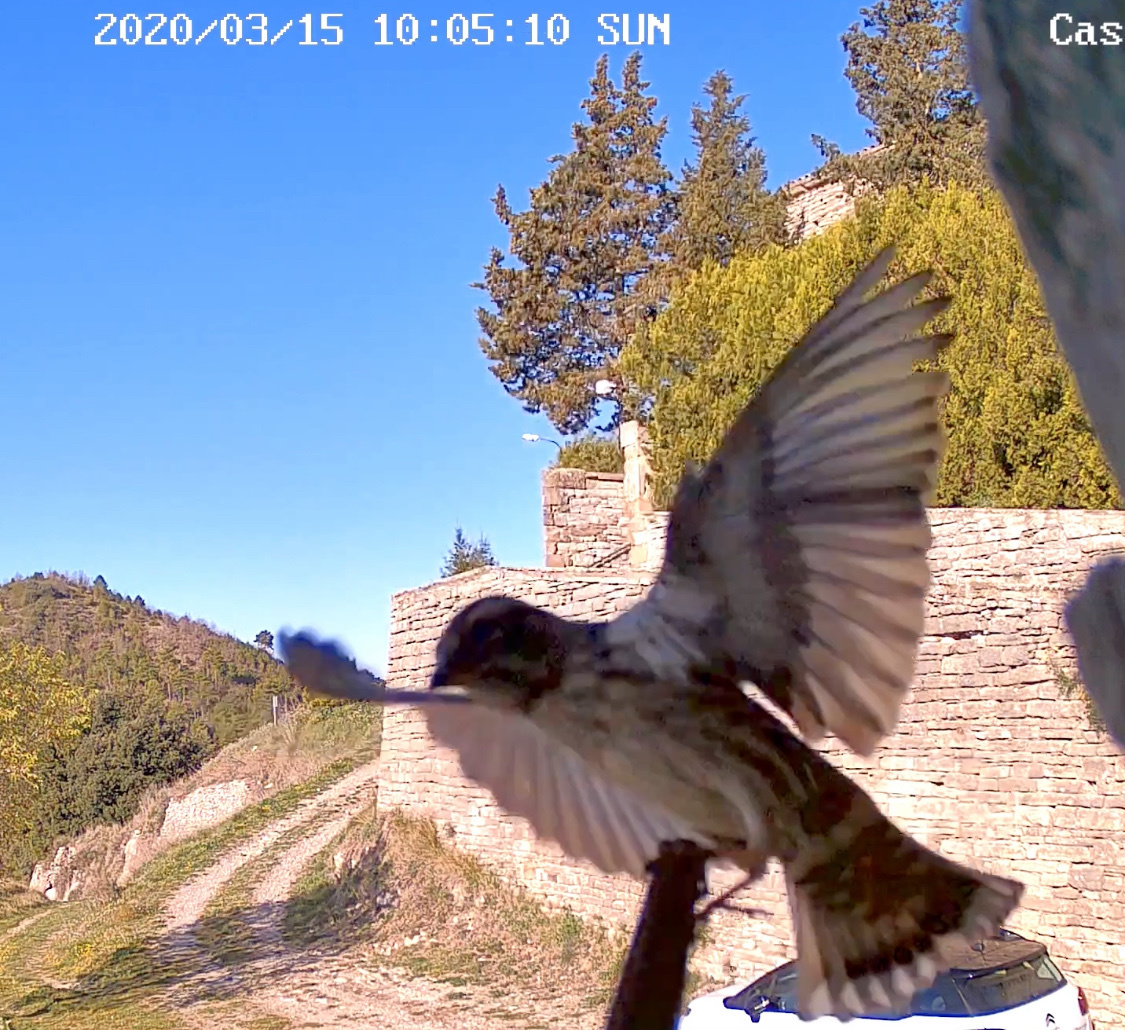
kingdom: Animalia
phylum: Chordata
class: Aves
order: Passeriformes
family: Passeridae
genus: Petronia
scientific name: Petronia petronia
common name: Rock sparrow
